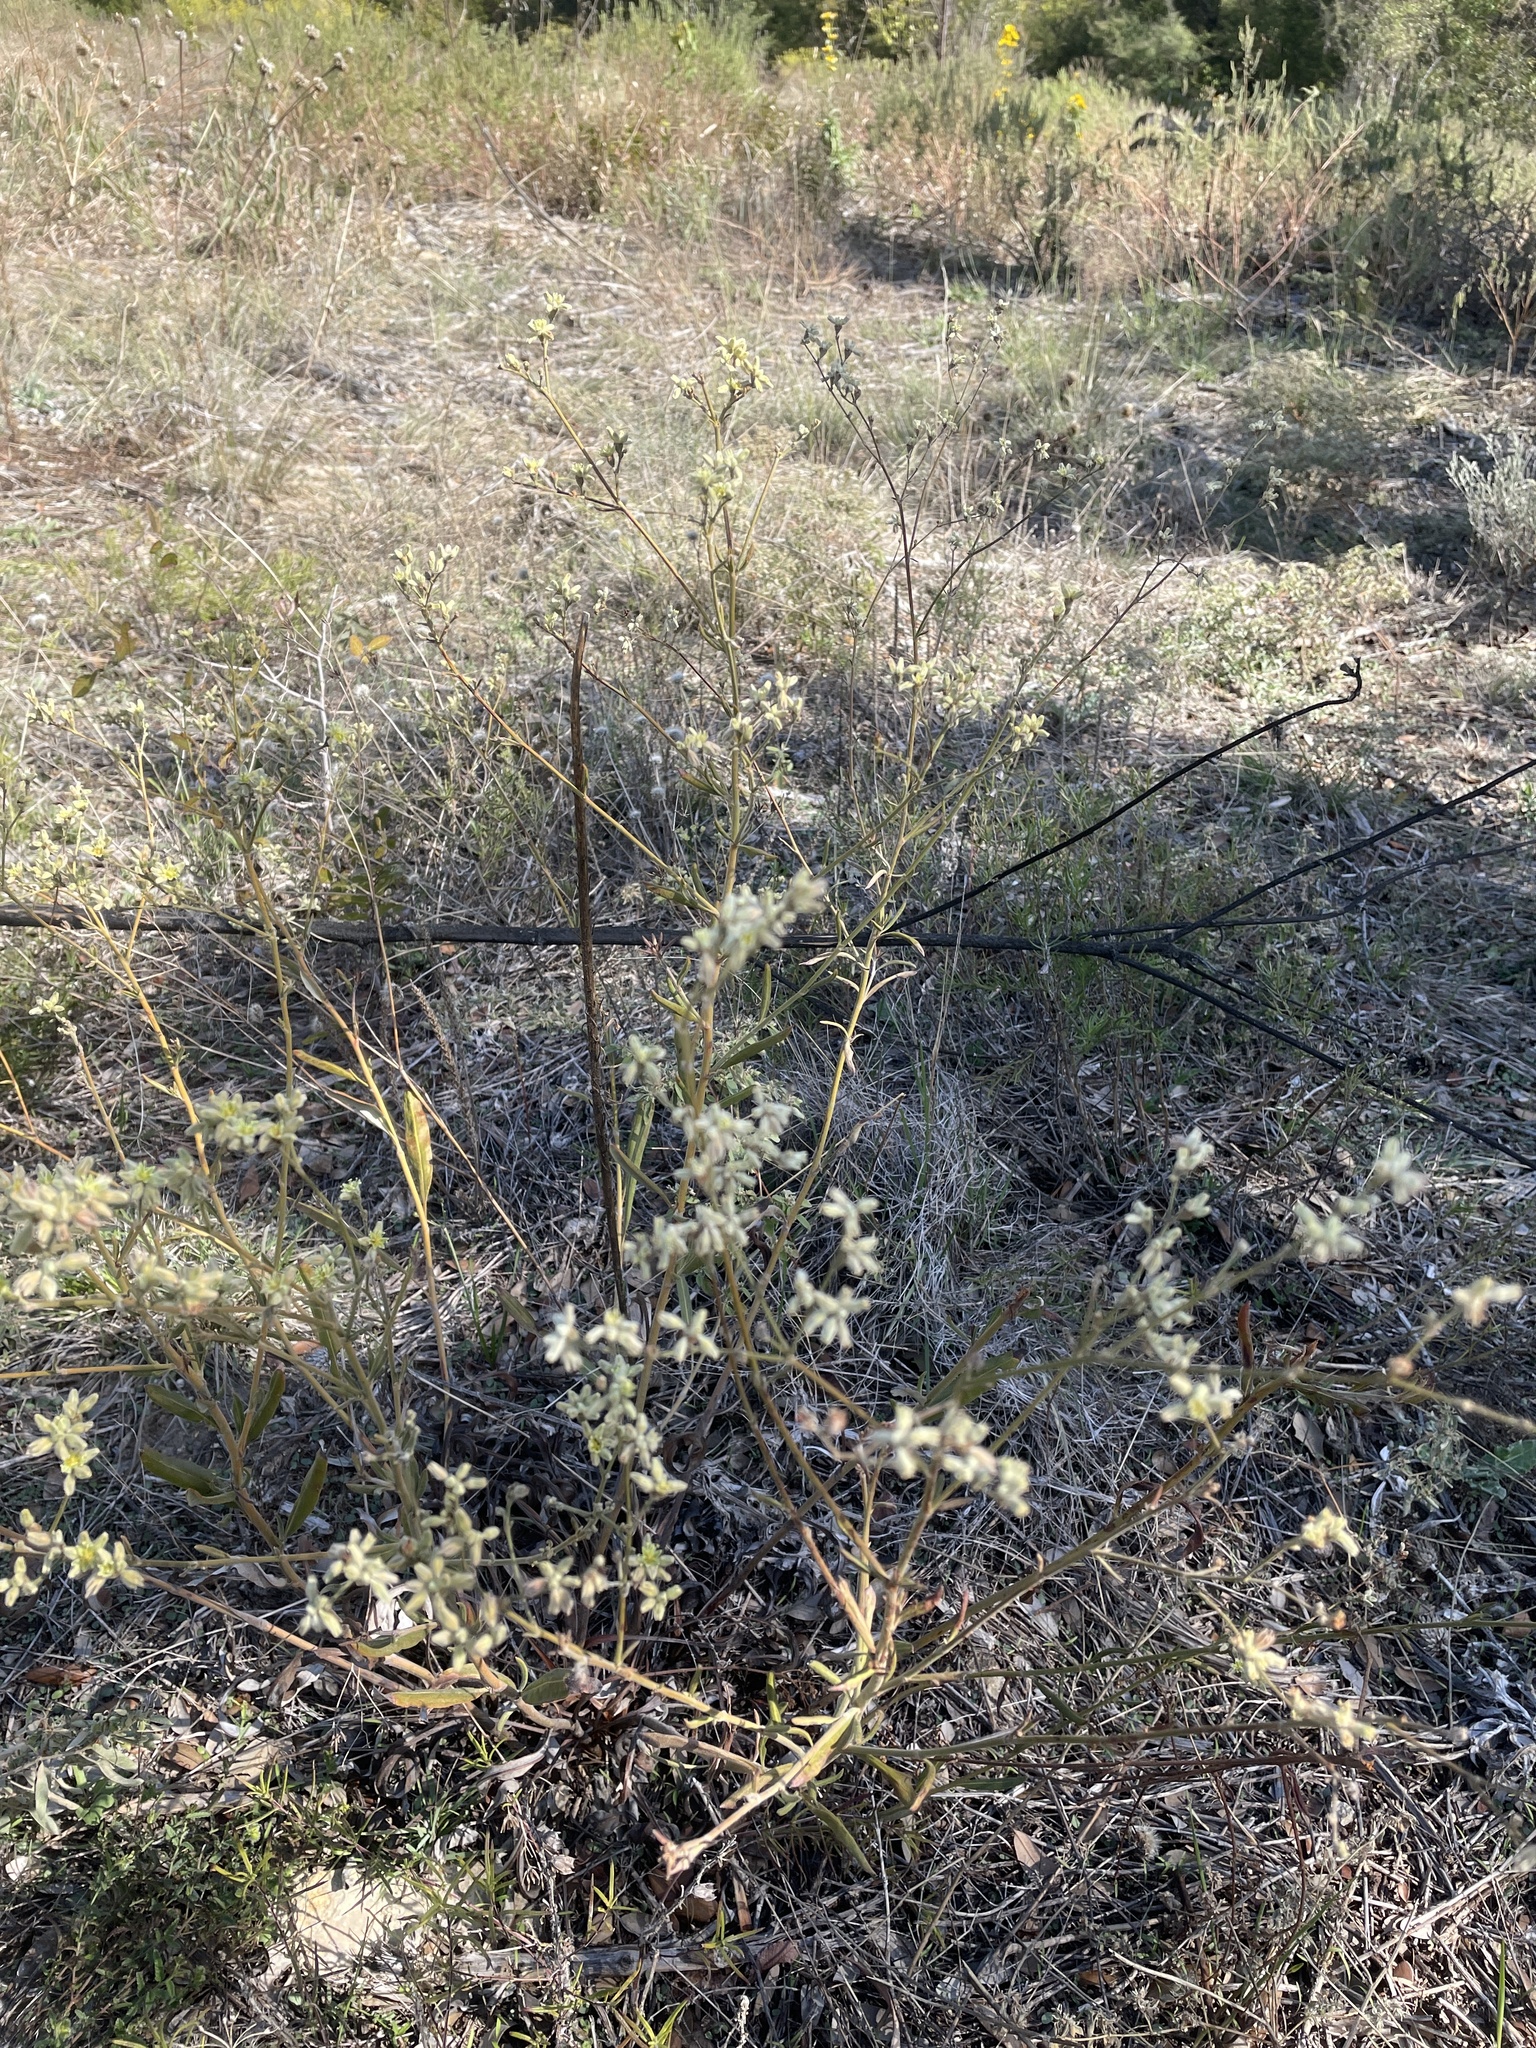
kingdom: Plantae
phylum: Tracheophyta
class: Magnoliopsida
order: Caryophyllales
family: Polygonaceae
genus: Eriogonum
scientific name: Eriogonum longifolium
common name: Longleaf wild buckwheat
